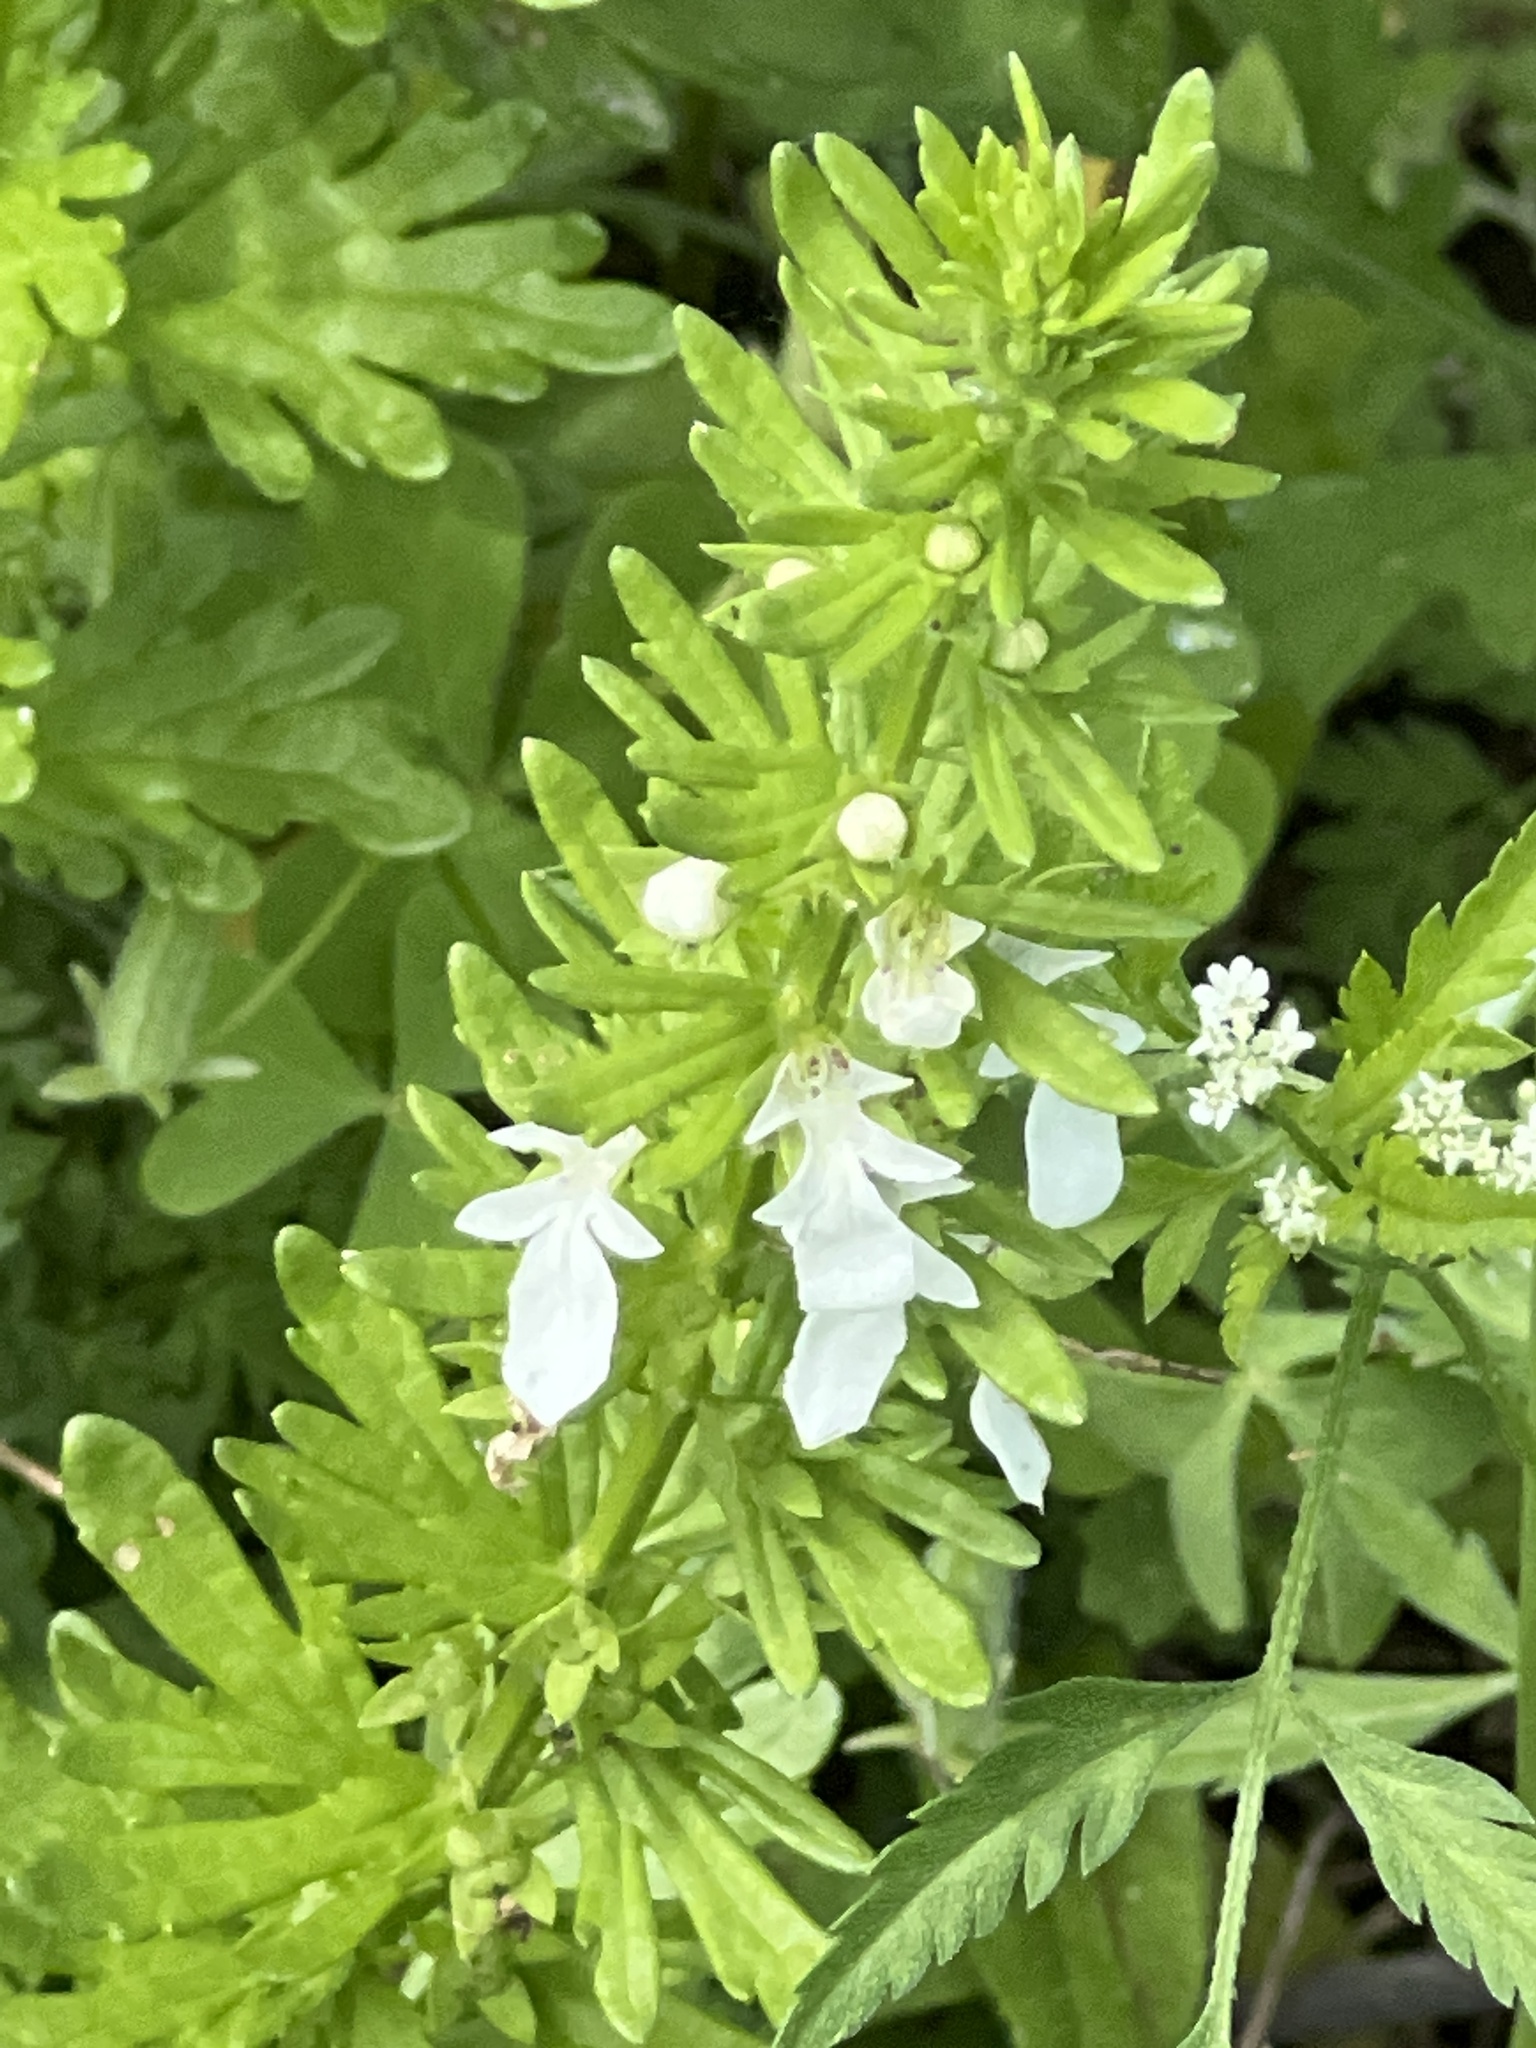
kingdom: Plantae
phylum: Tracheophyta
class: Magnoliopsida
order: Lamiales
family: Lamiaceae
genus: Teucrium
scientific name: Teucrium cubense
